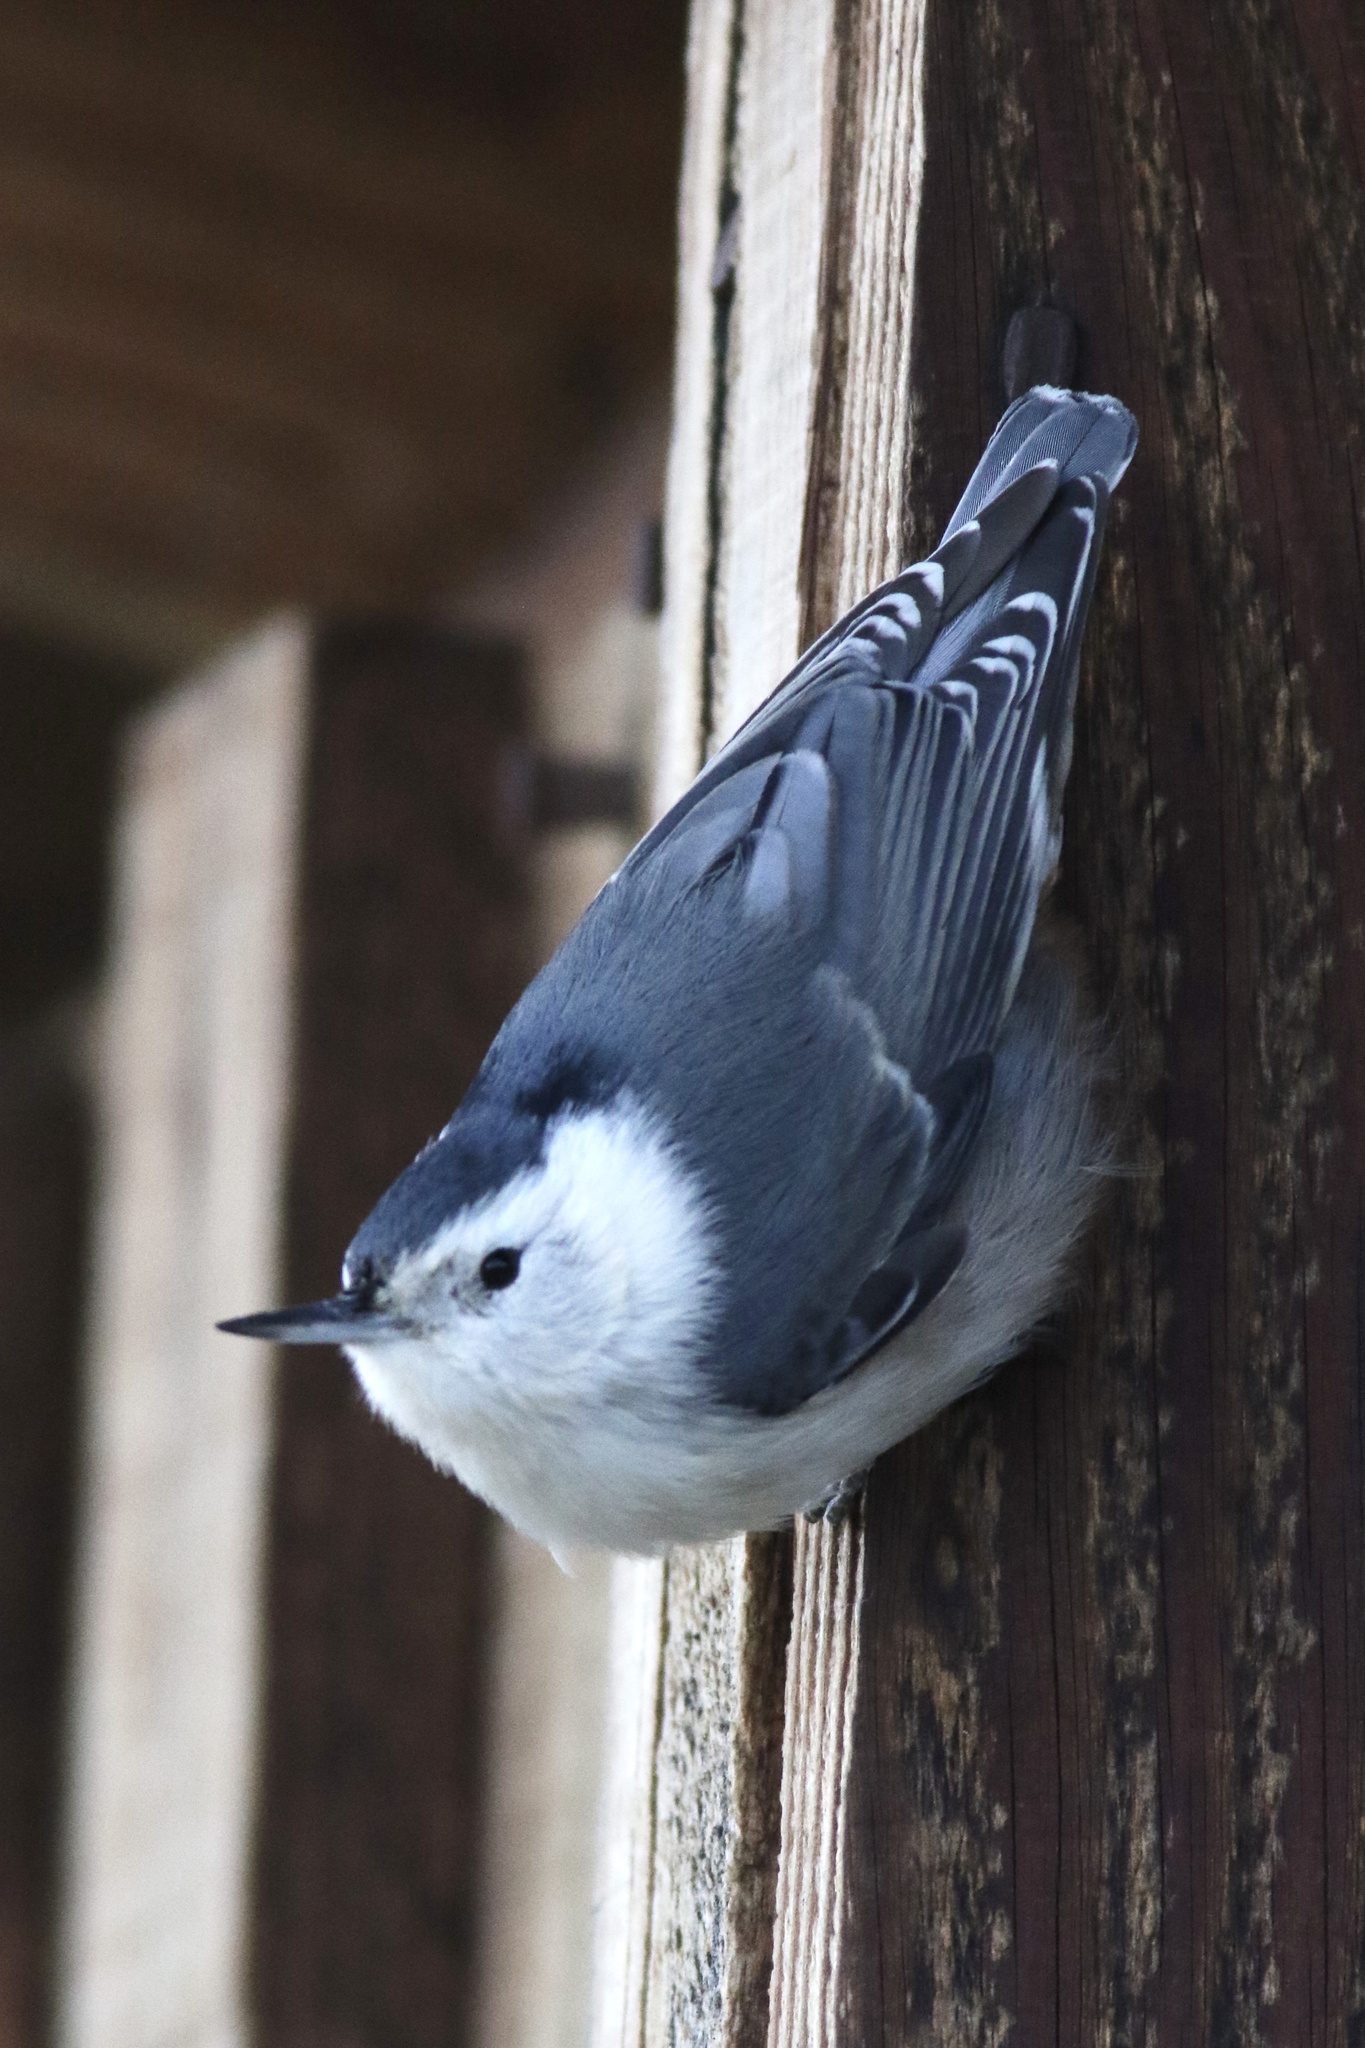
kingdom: Animalia
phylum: Chordata
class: Aves
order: Passeriformes
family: Sittidae
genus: Sitta
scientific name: Sitta carolinensis
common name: White-breasted nuthatch
